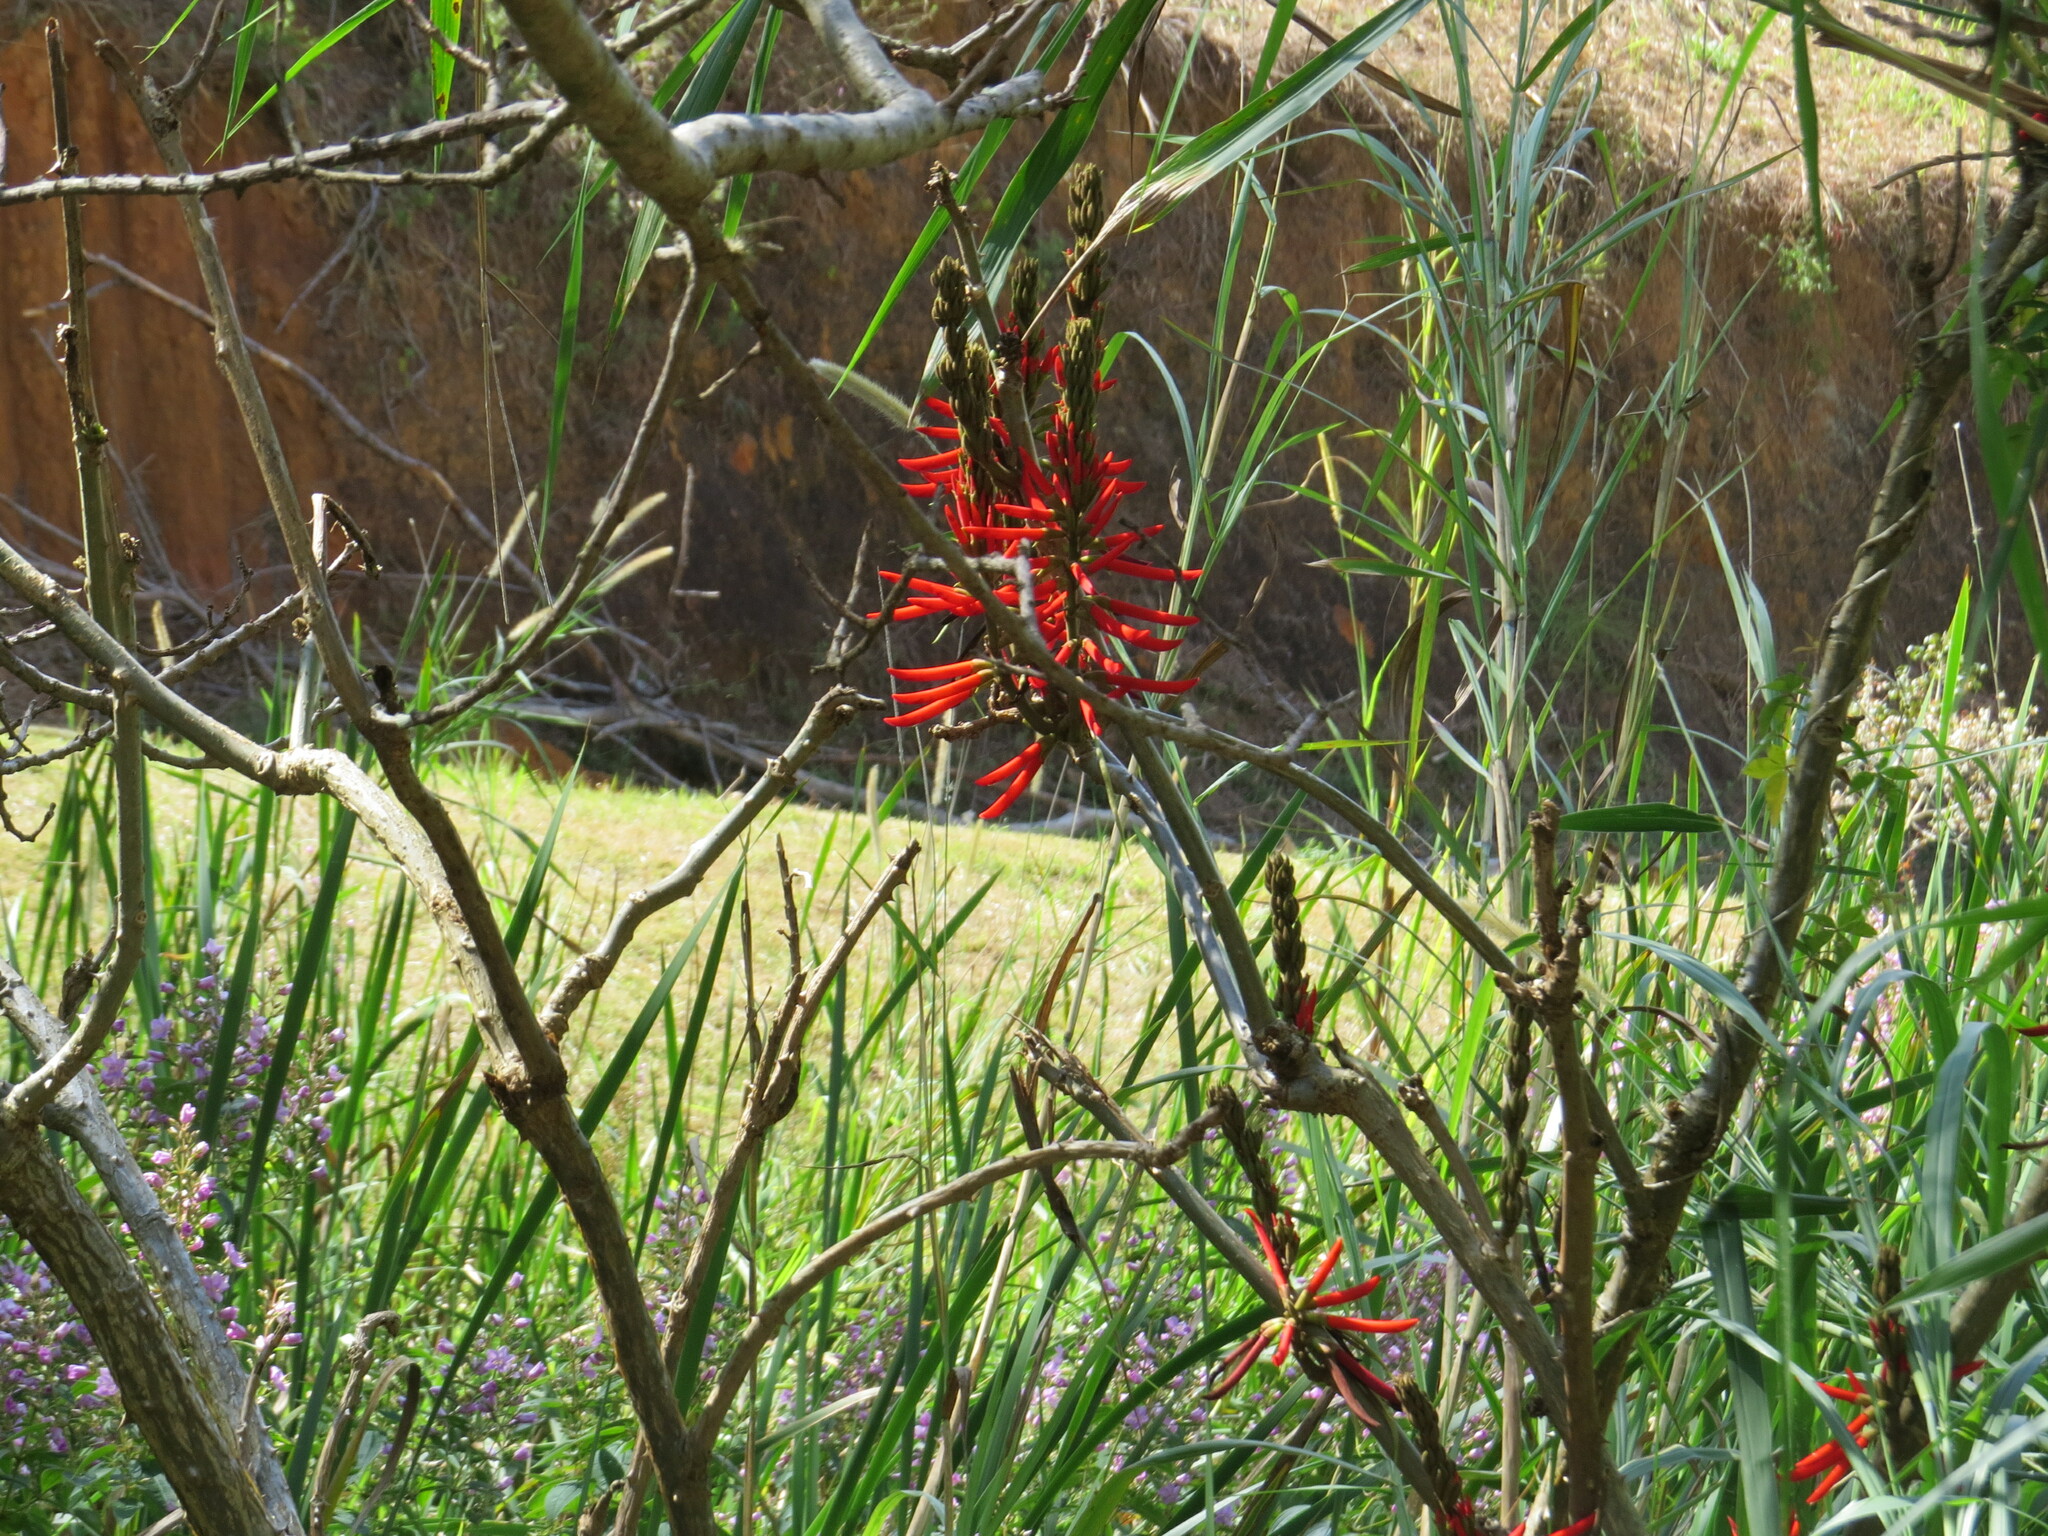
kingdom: Plantae
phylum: Tracheophyta
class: Magnoliopsida
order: Fabales
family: Fabaceae
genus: Erythrina
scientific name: Erythrina speciosa
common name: Coral tree
